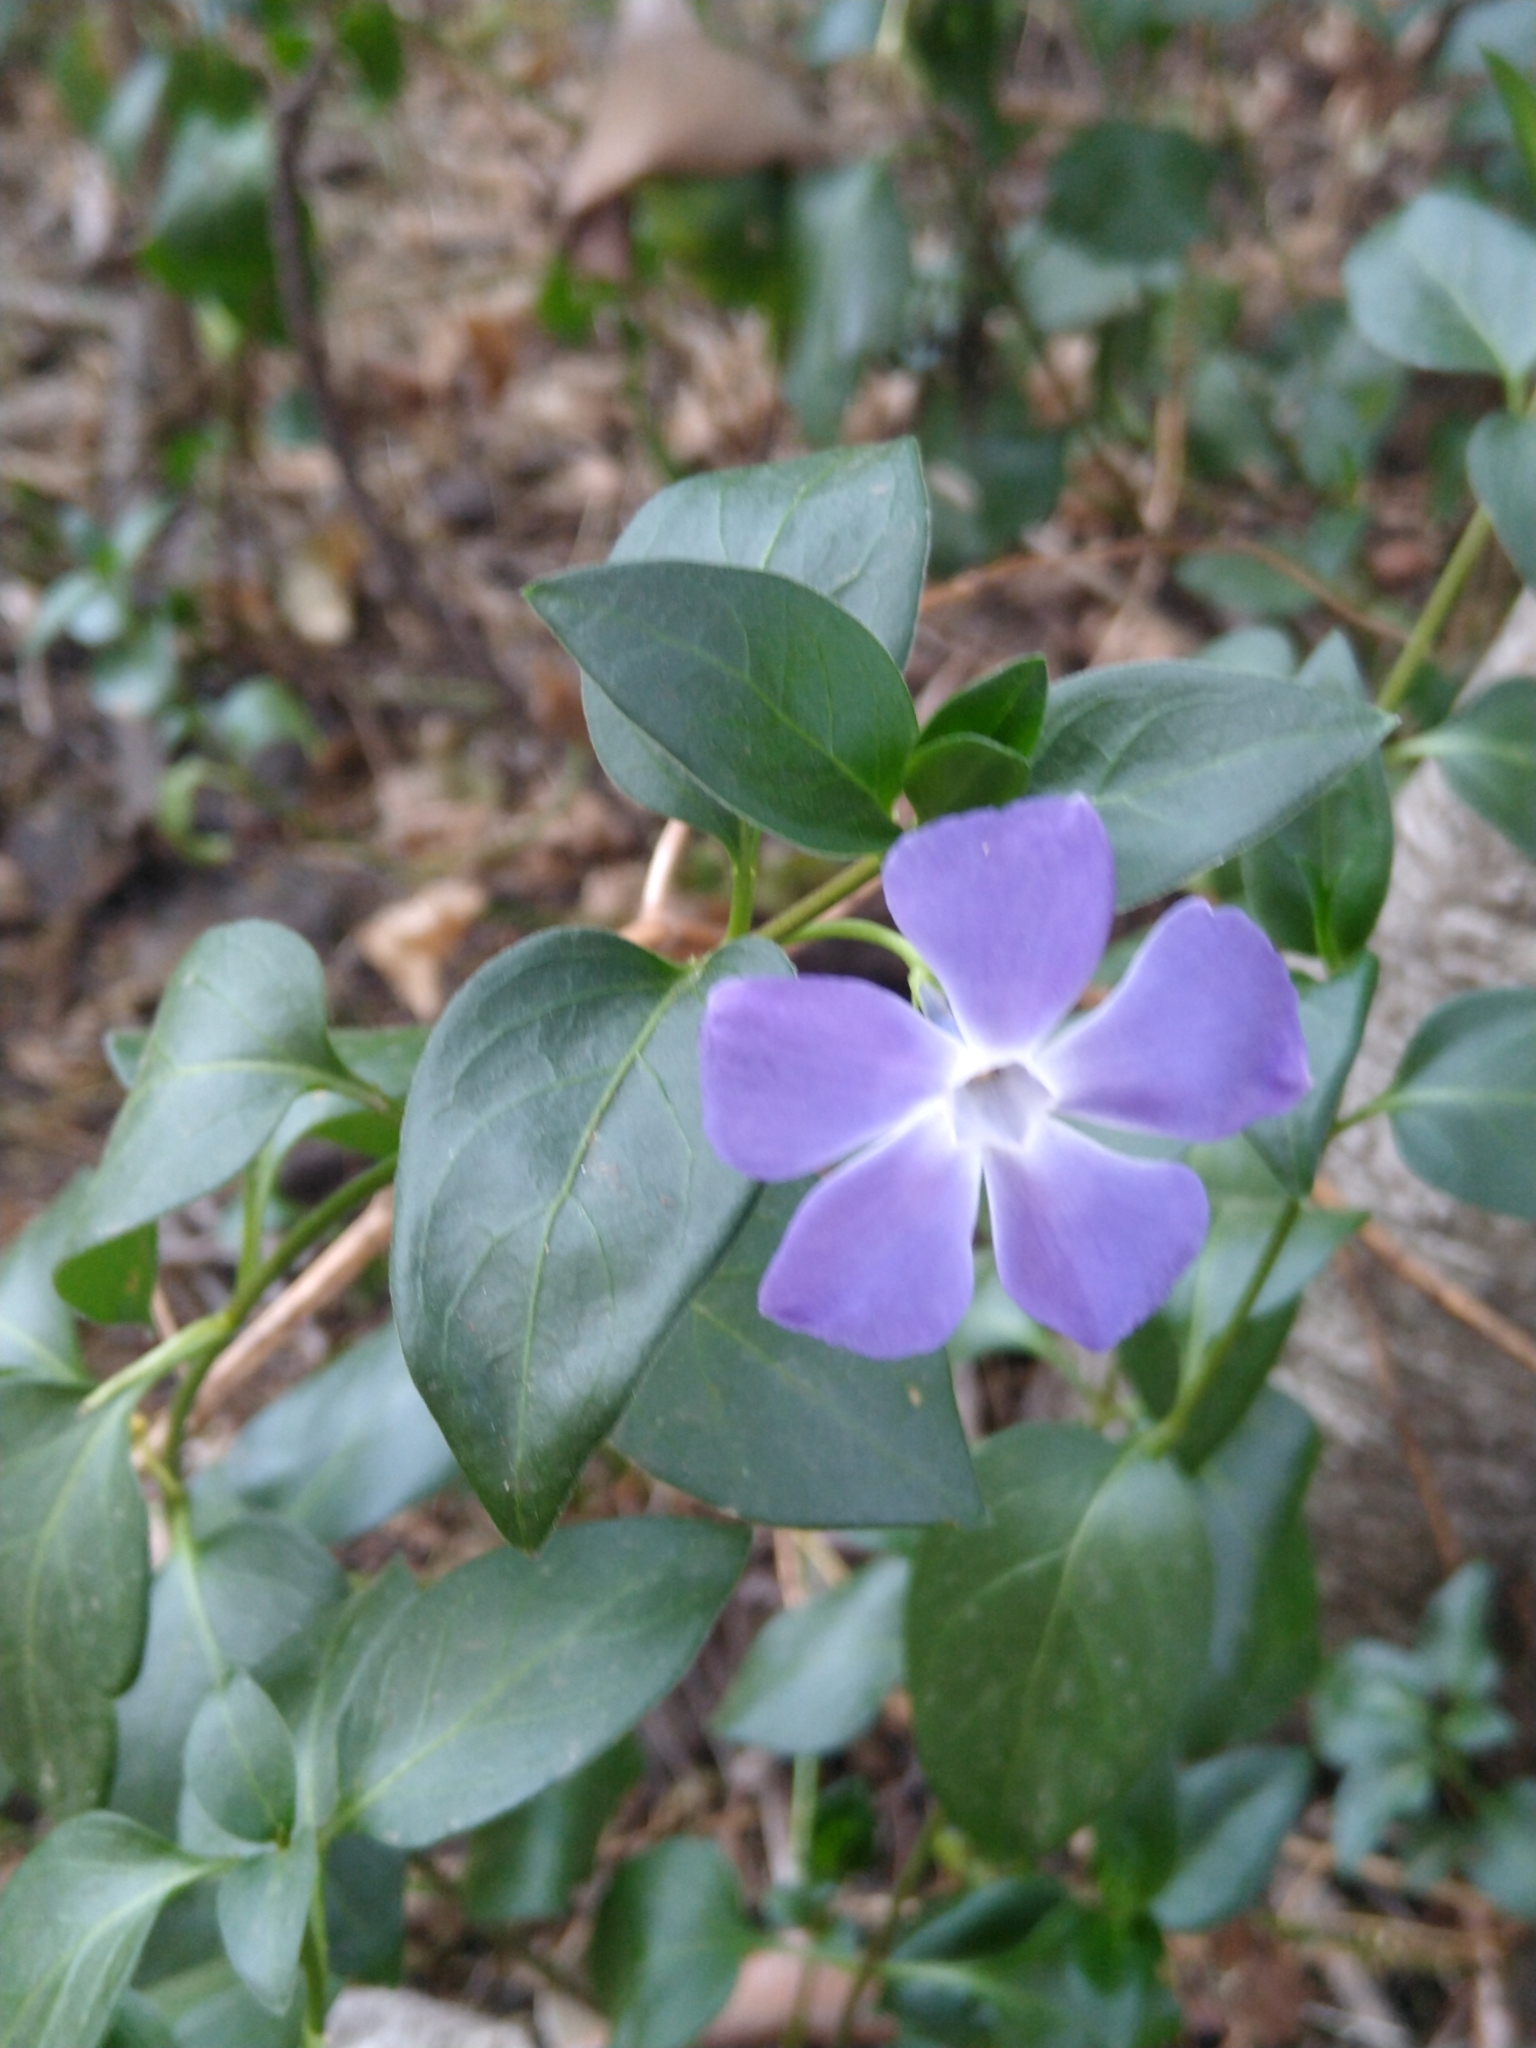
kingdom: Plantae
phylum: Tracheophyta
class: Magnoliopsida
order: Gentianales
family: Apocynaceae
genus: Vinca
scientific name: Vinca major
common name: Greater periwinkle
